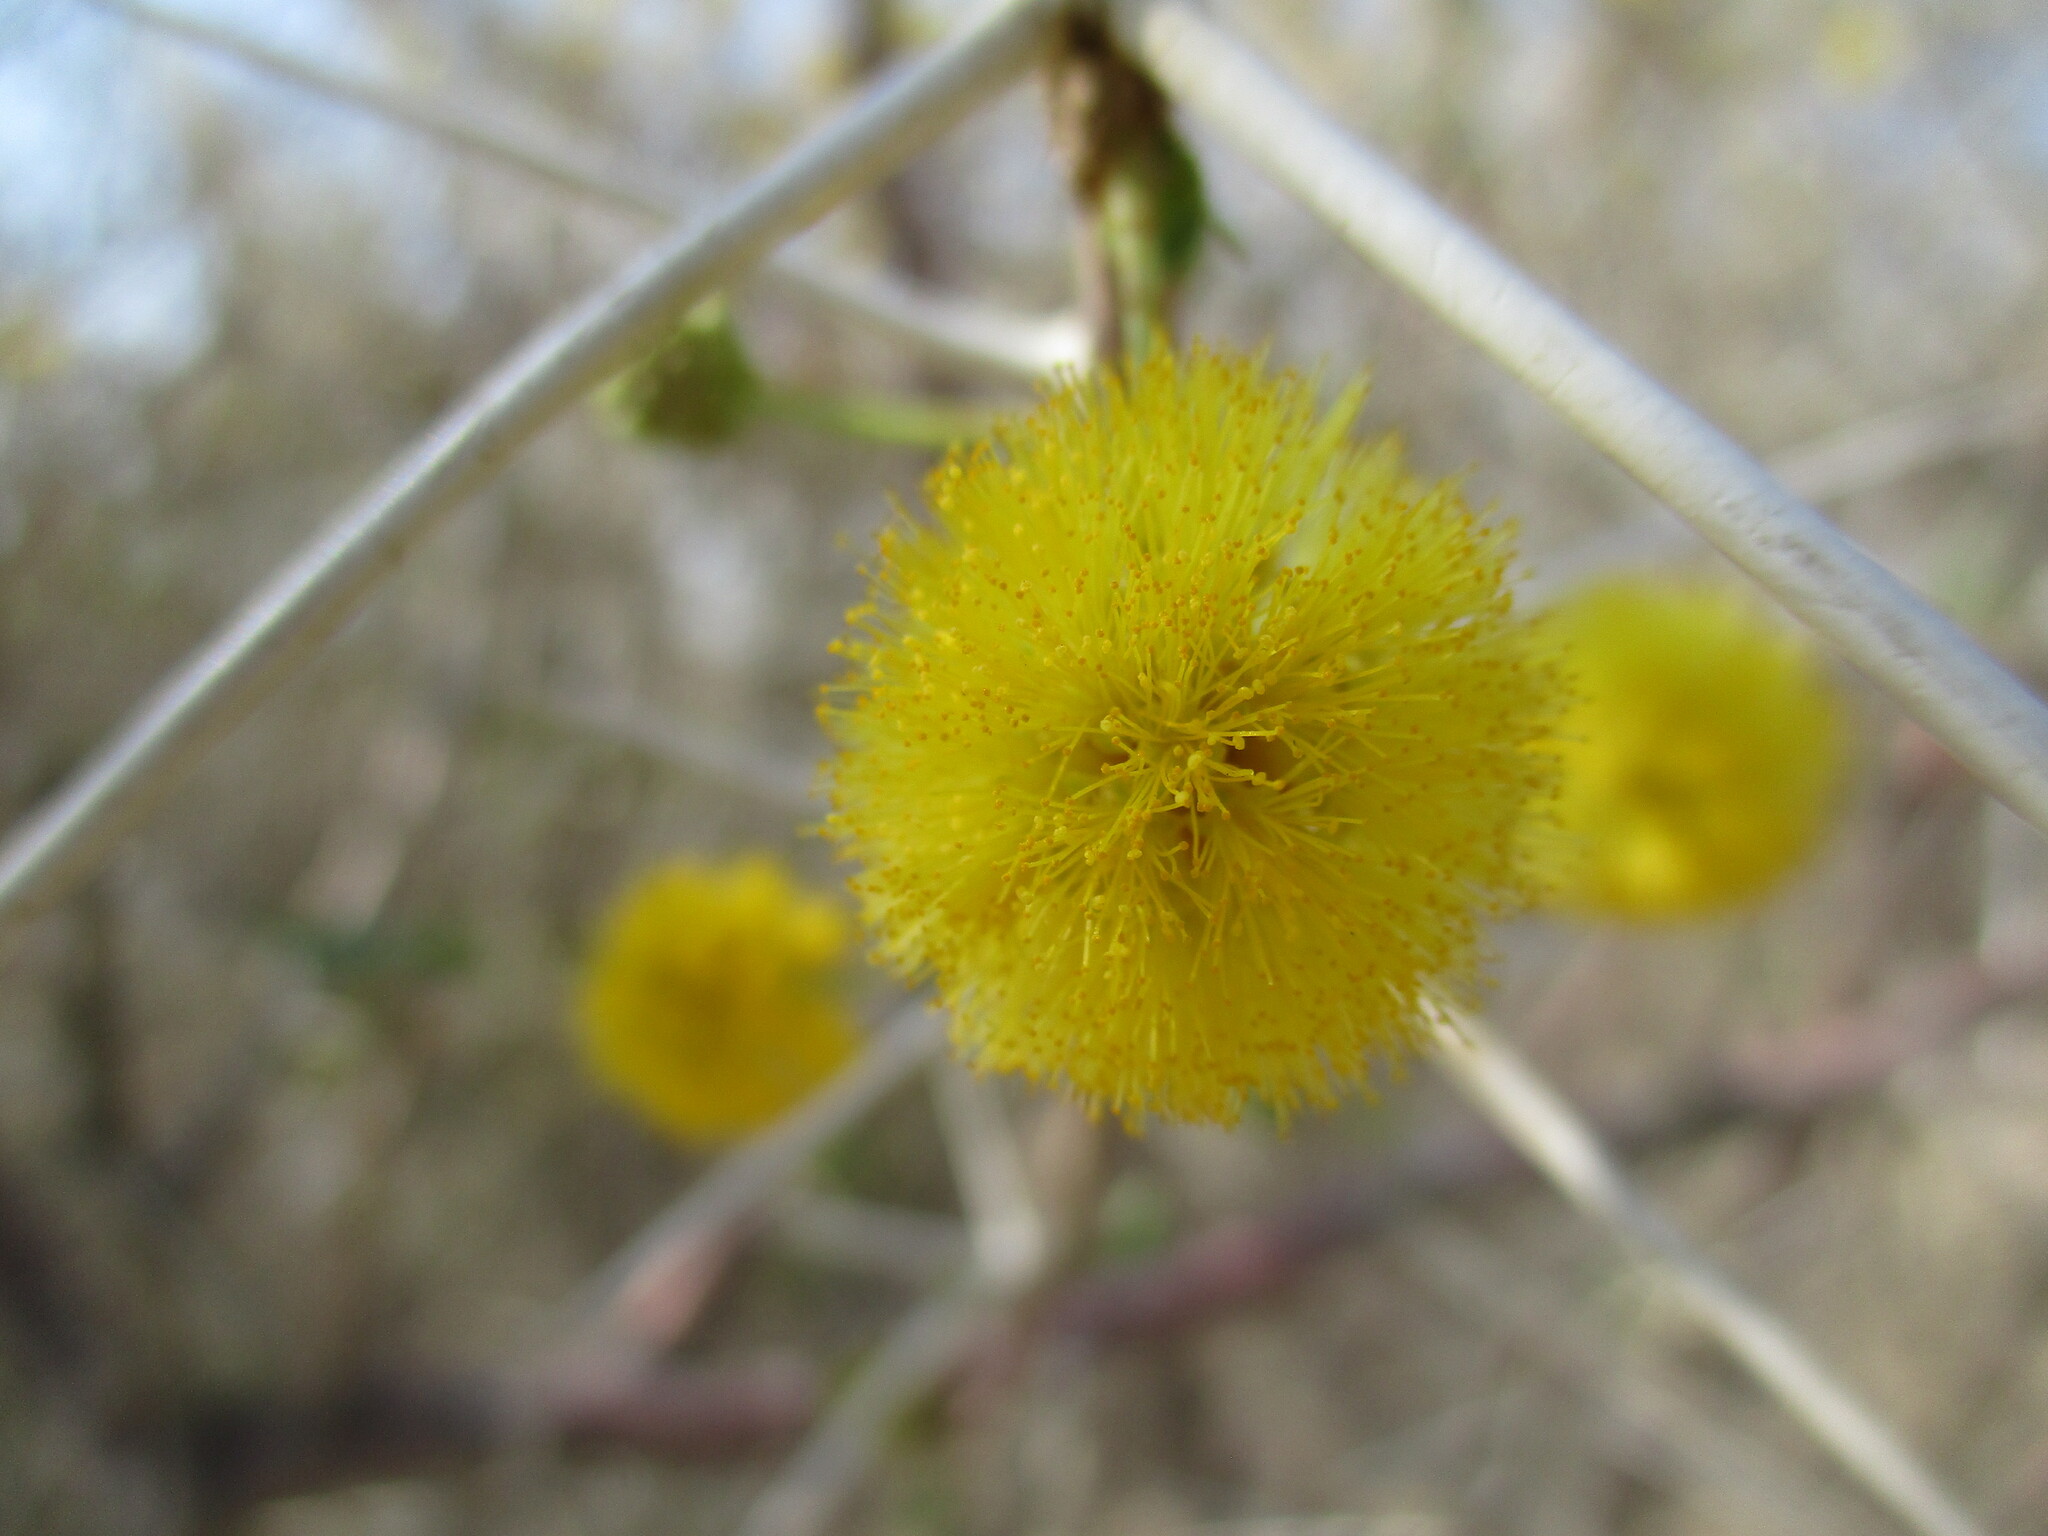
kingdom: Plantae
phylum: Tracheophyta
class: Magnoliopsida
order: Fabales
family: Fabaceae
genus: Vachellia
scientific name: Vachellia nebrownii
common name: Water acacia
